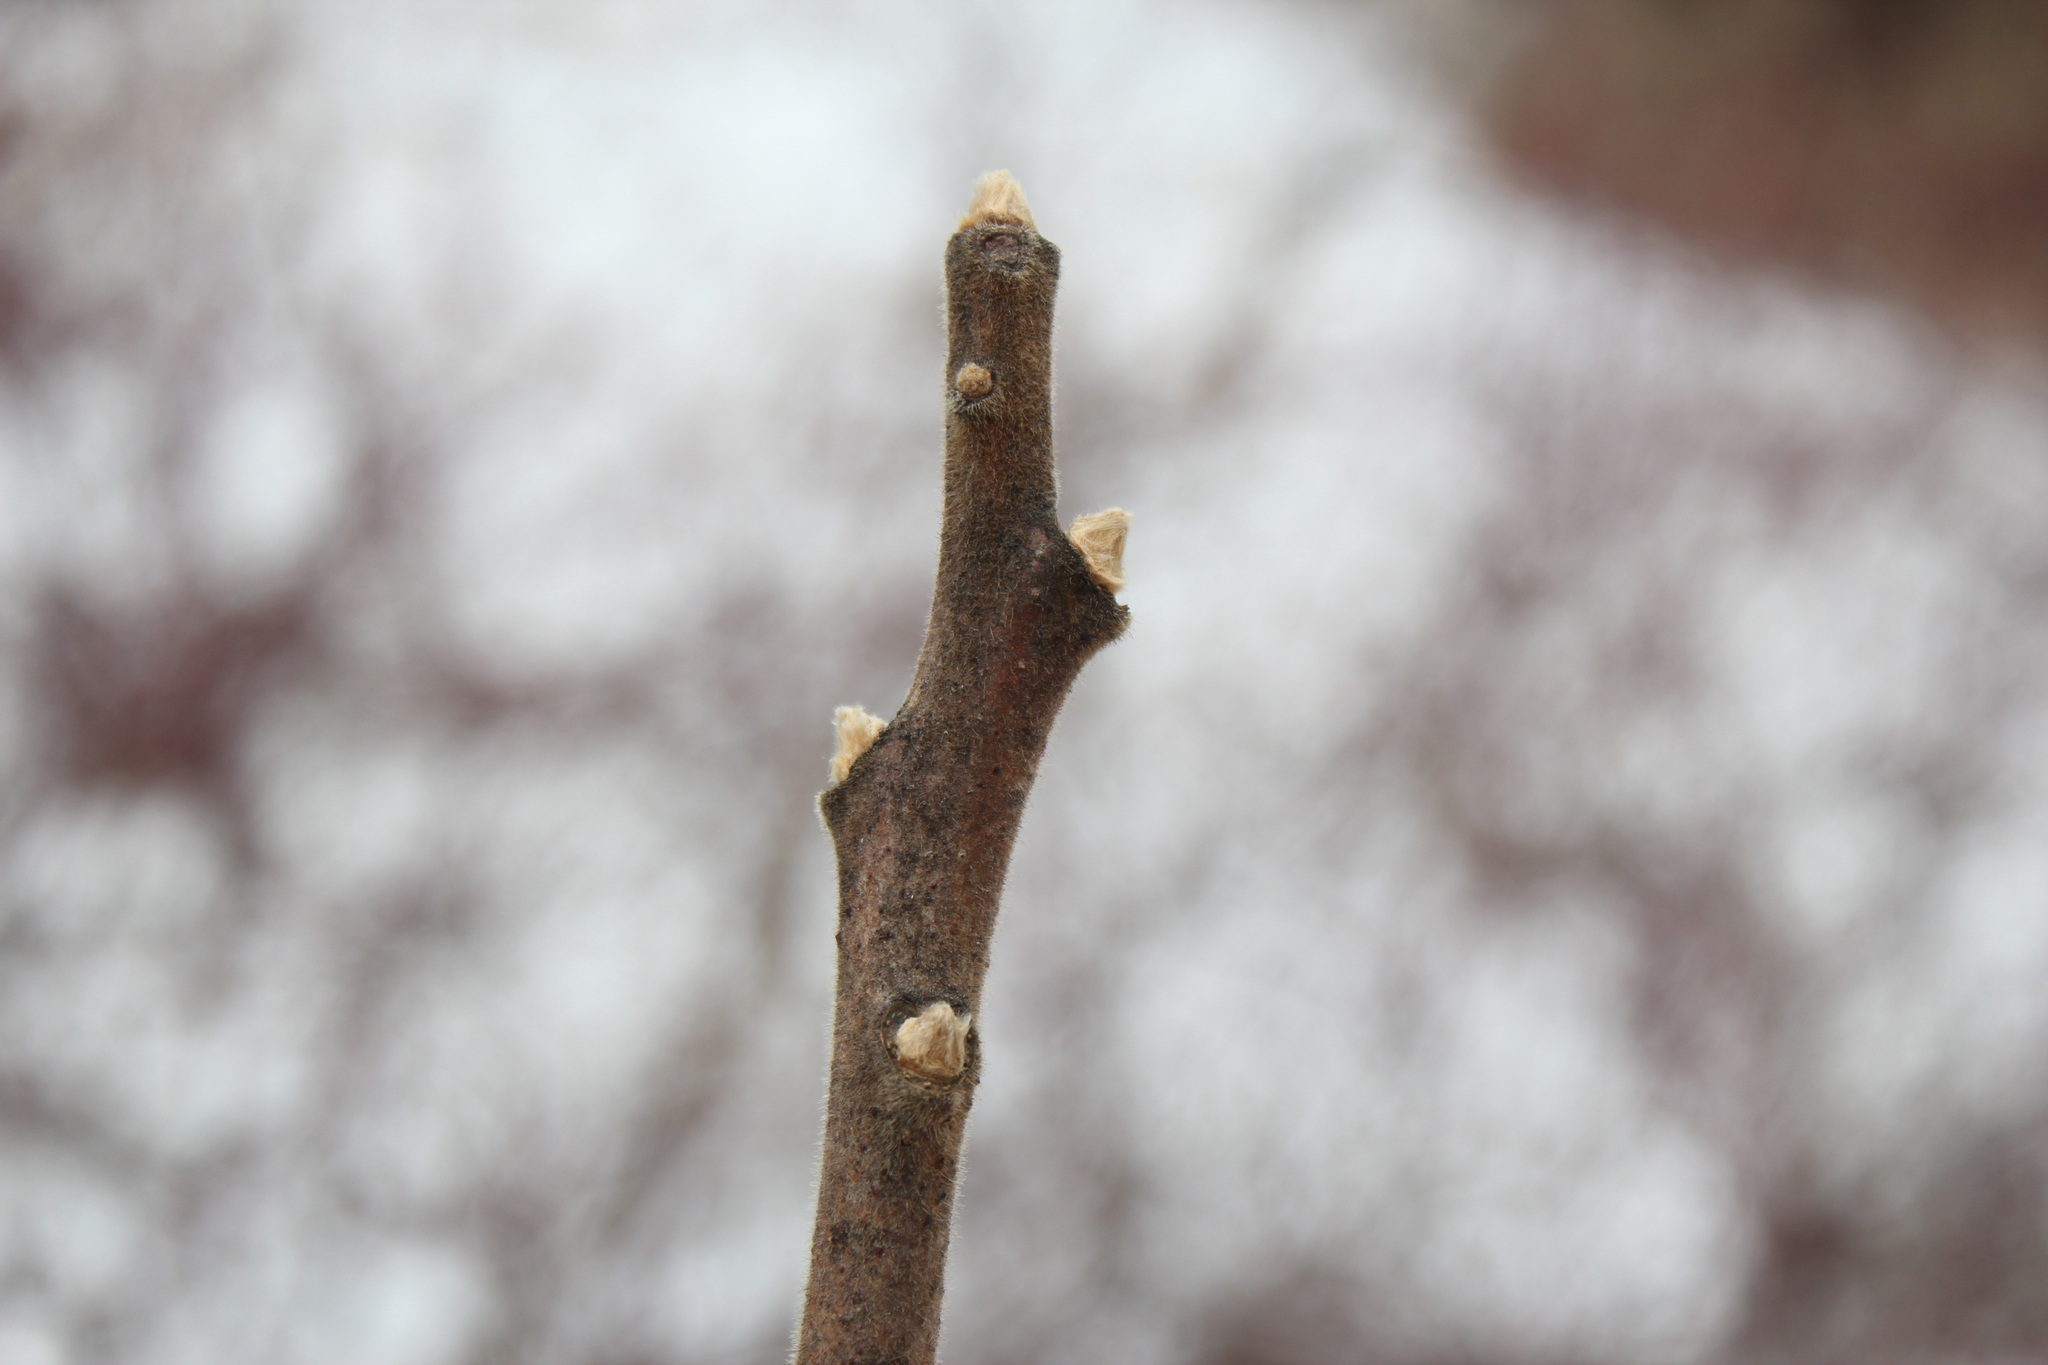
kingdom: Plantae
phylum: Tracheophyta
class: Magnoliopsida
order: Sapindales
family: Anacardiaceae
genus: Rhus
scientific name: Rhus typhina
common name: Staghorn sumac
